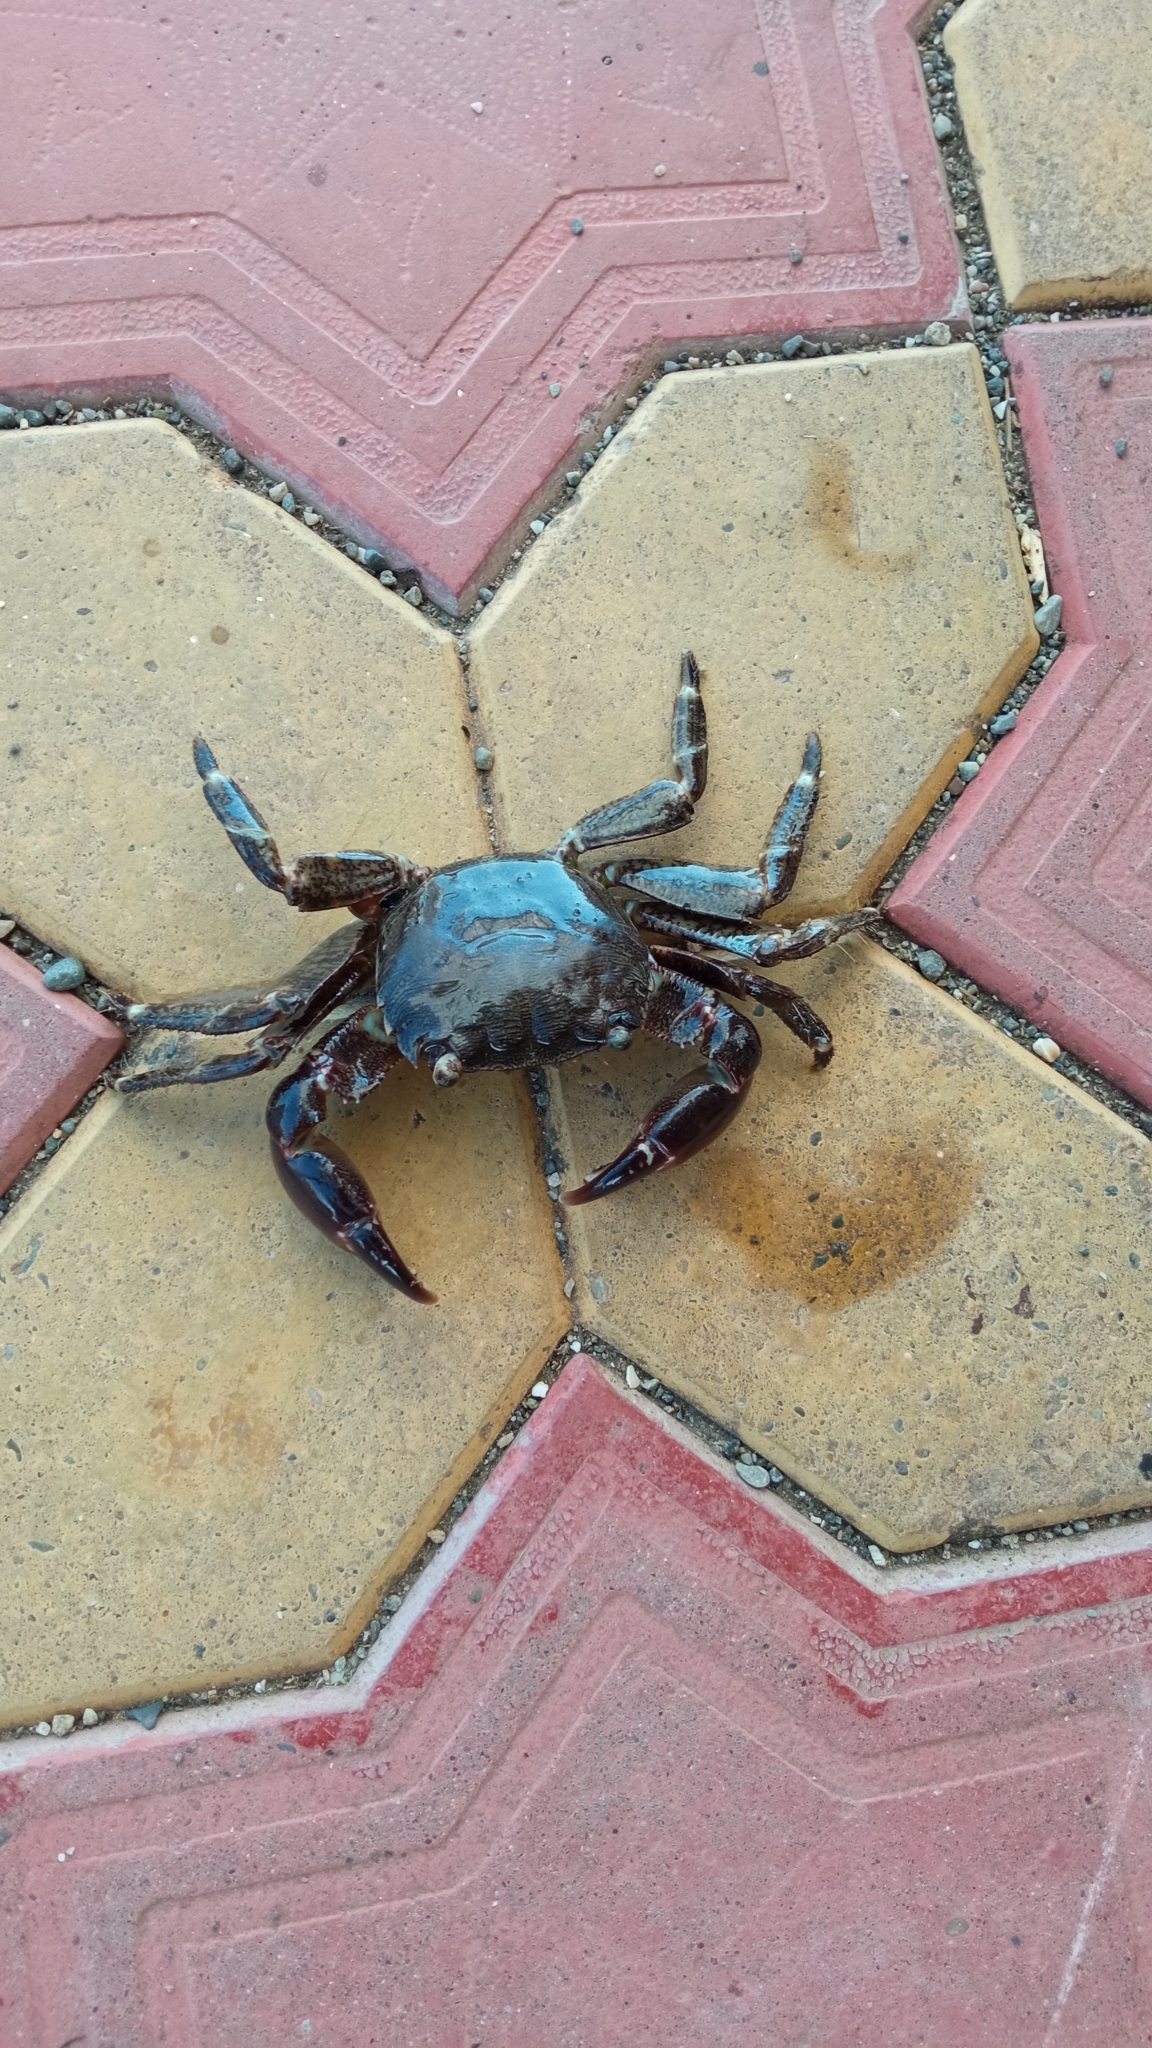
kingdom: Animalia
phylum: Arthropoda
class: Malacostraca
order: Decapoda
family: Grapsidae
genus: Pachygrapsus
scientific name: Pachygrapsus marmoratus
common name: Marbled rock crab
